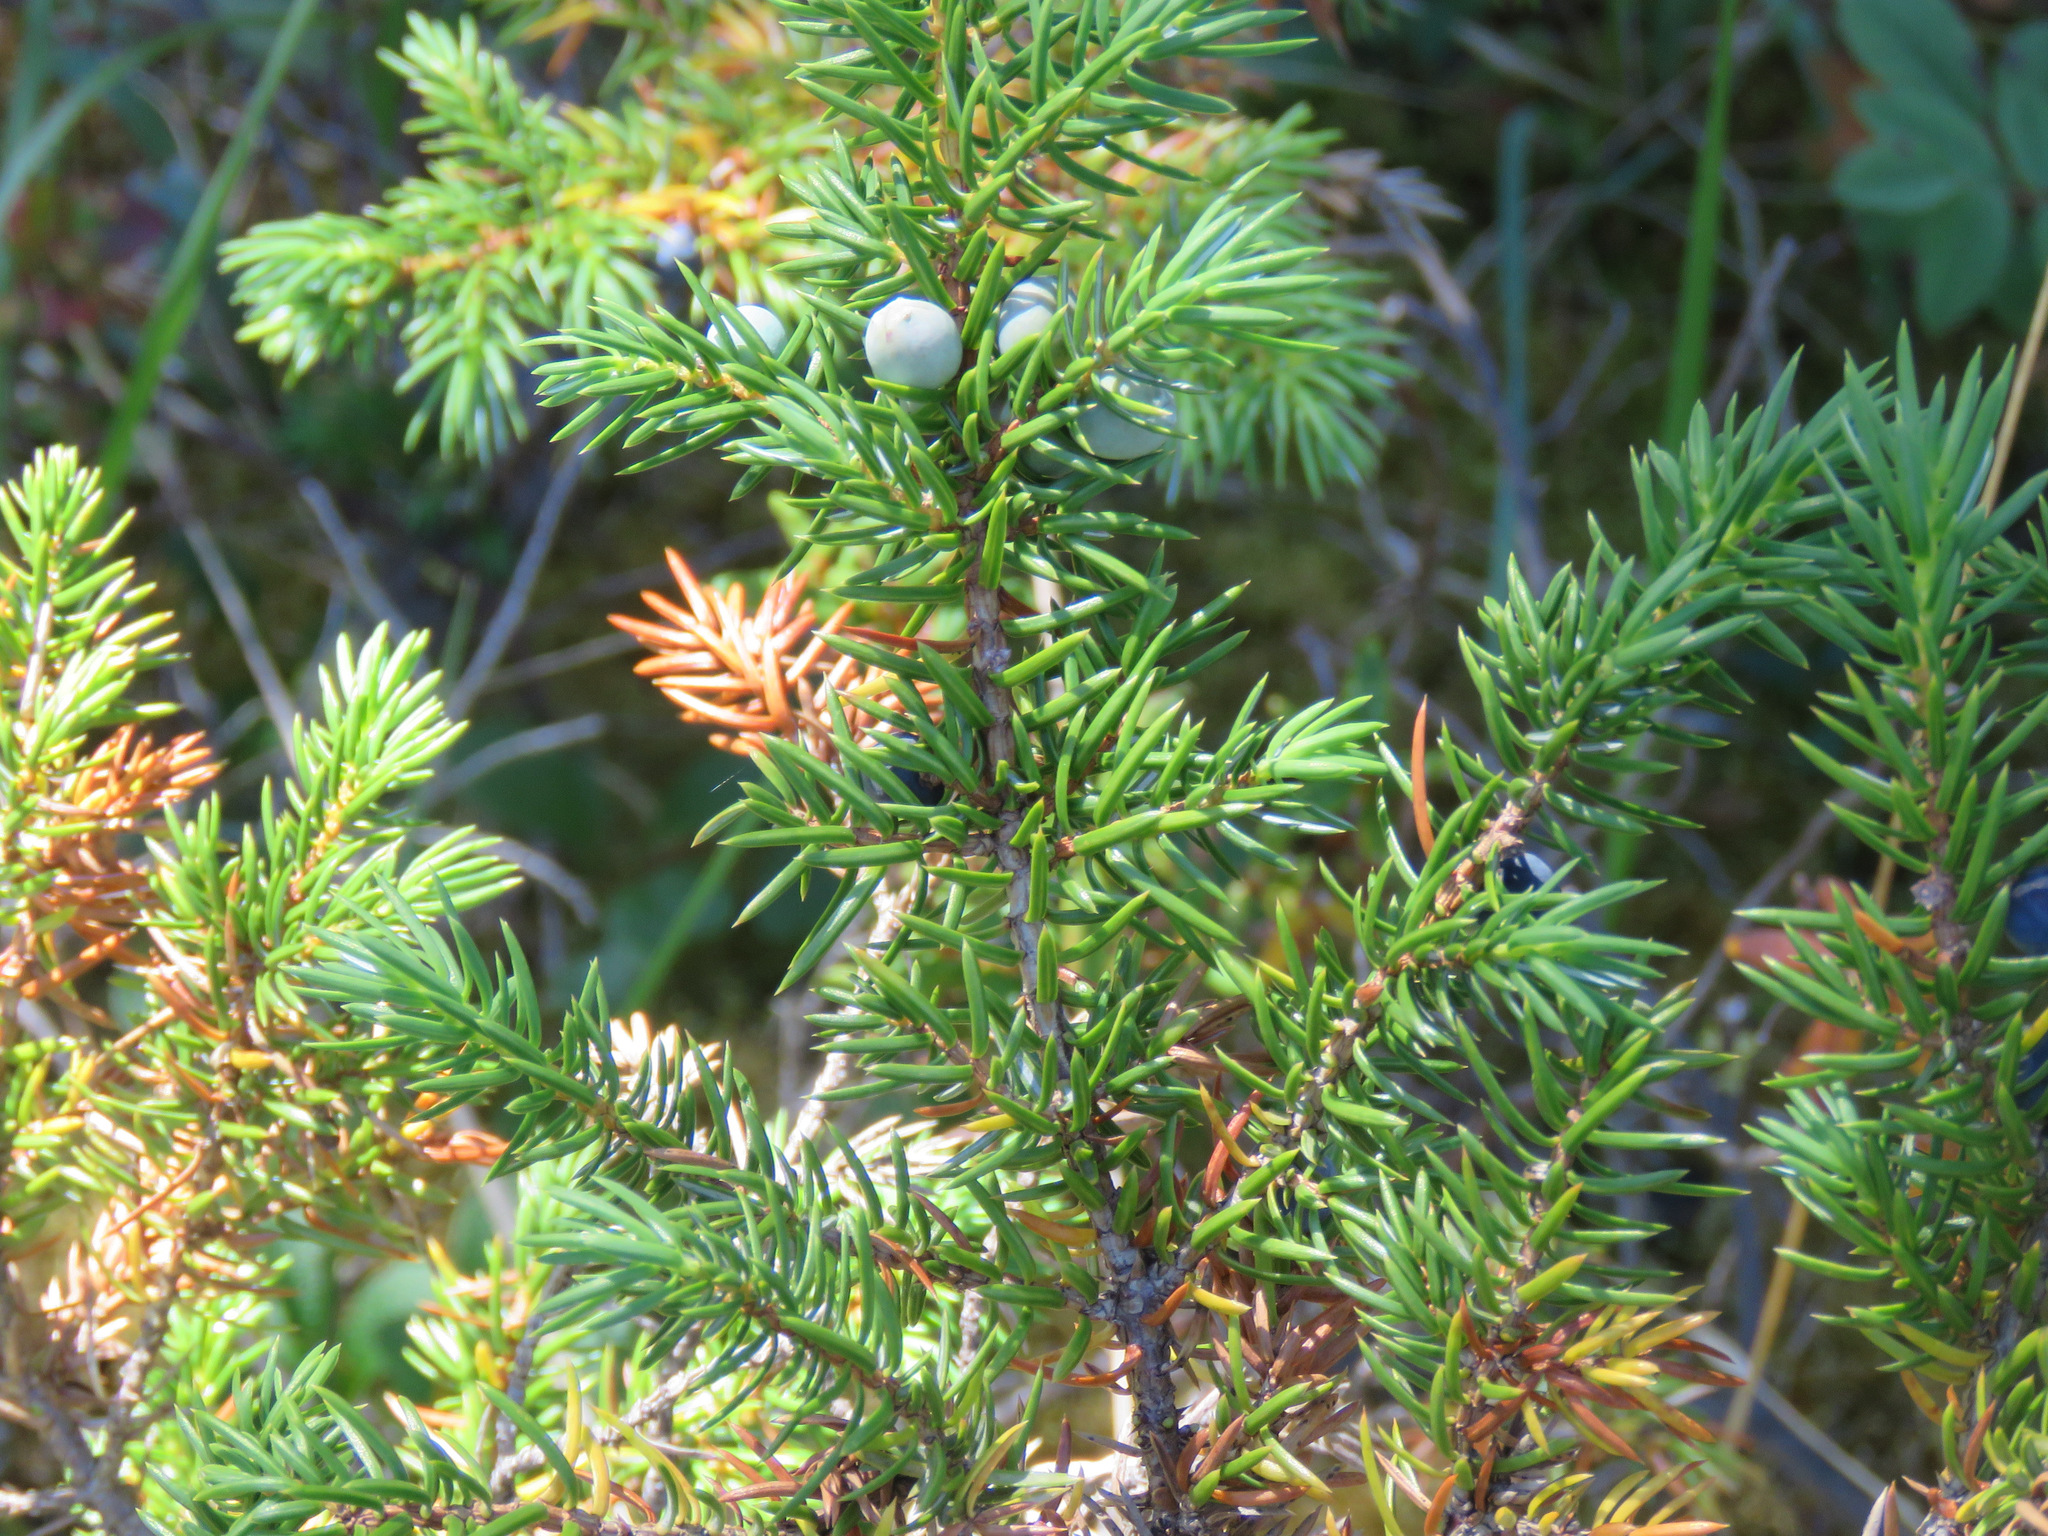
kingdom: Plantae
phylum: Tracheophyta
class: Pinopsida
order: Pinales
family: Cupressaceae
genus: Juniperus
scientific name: Juniperus communis
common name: Common juniper
